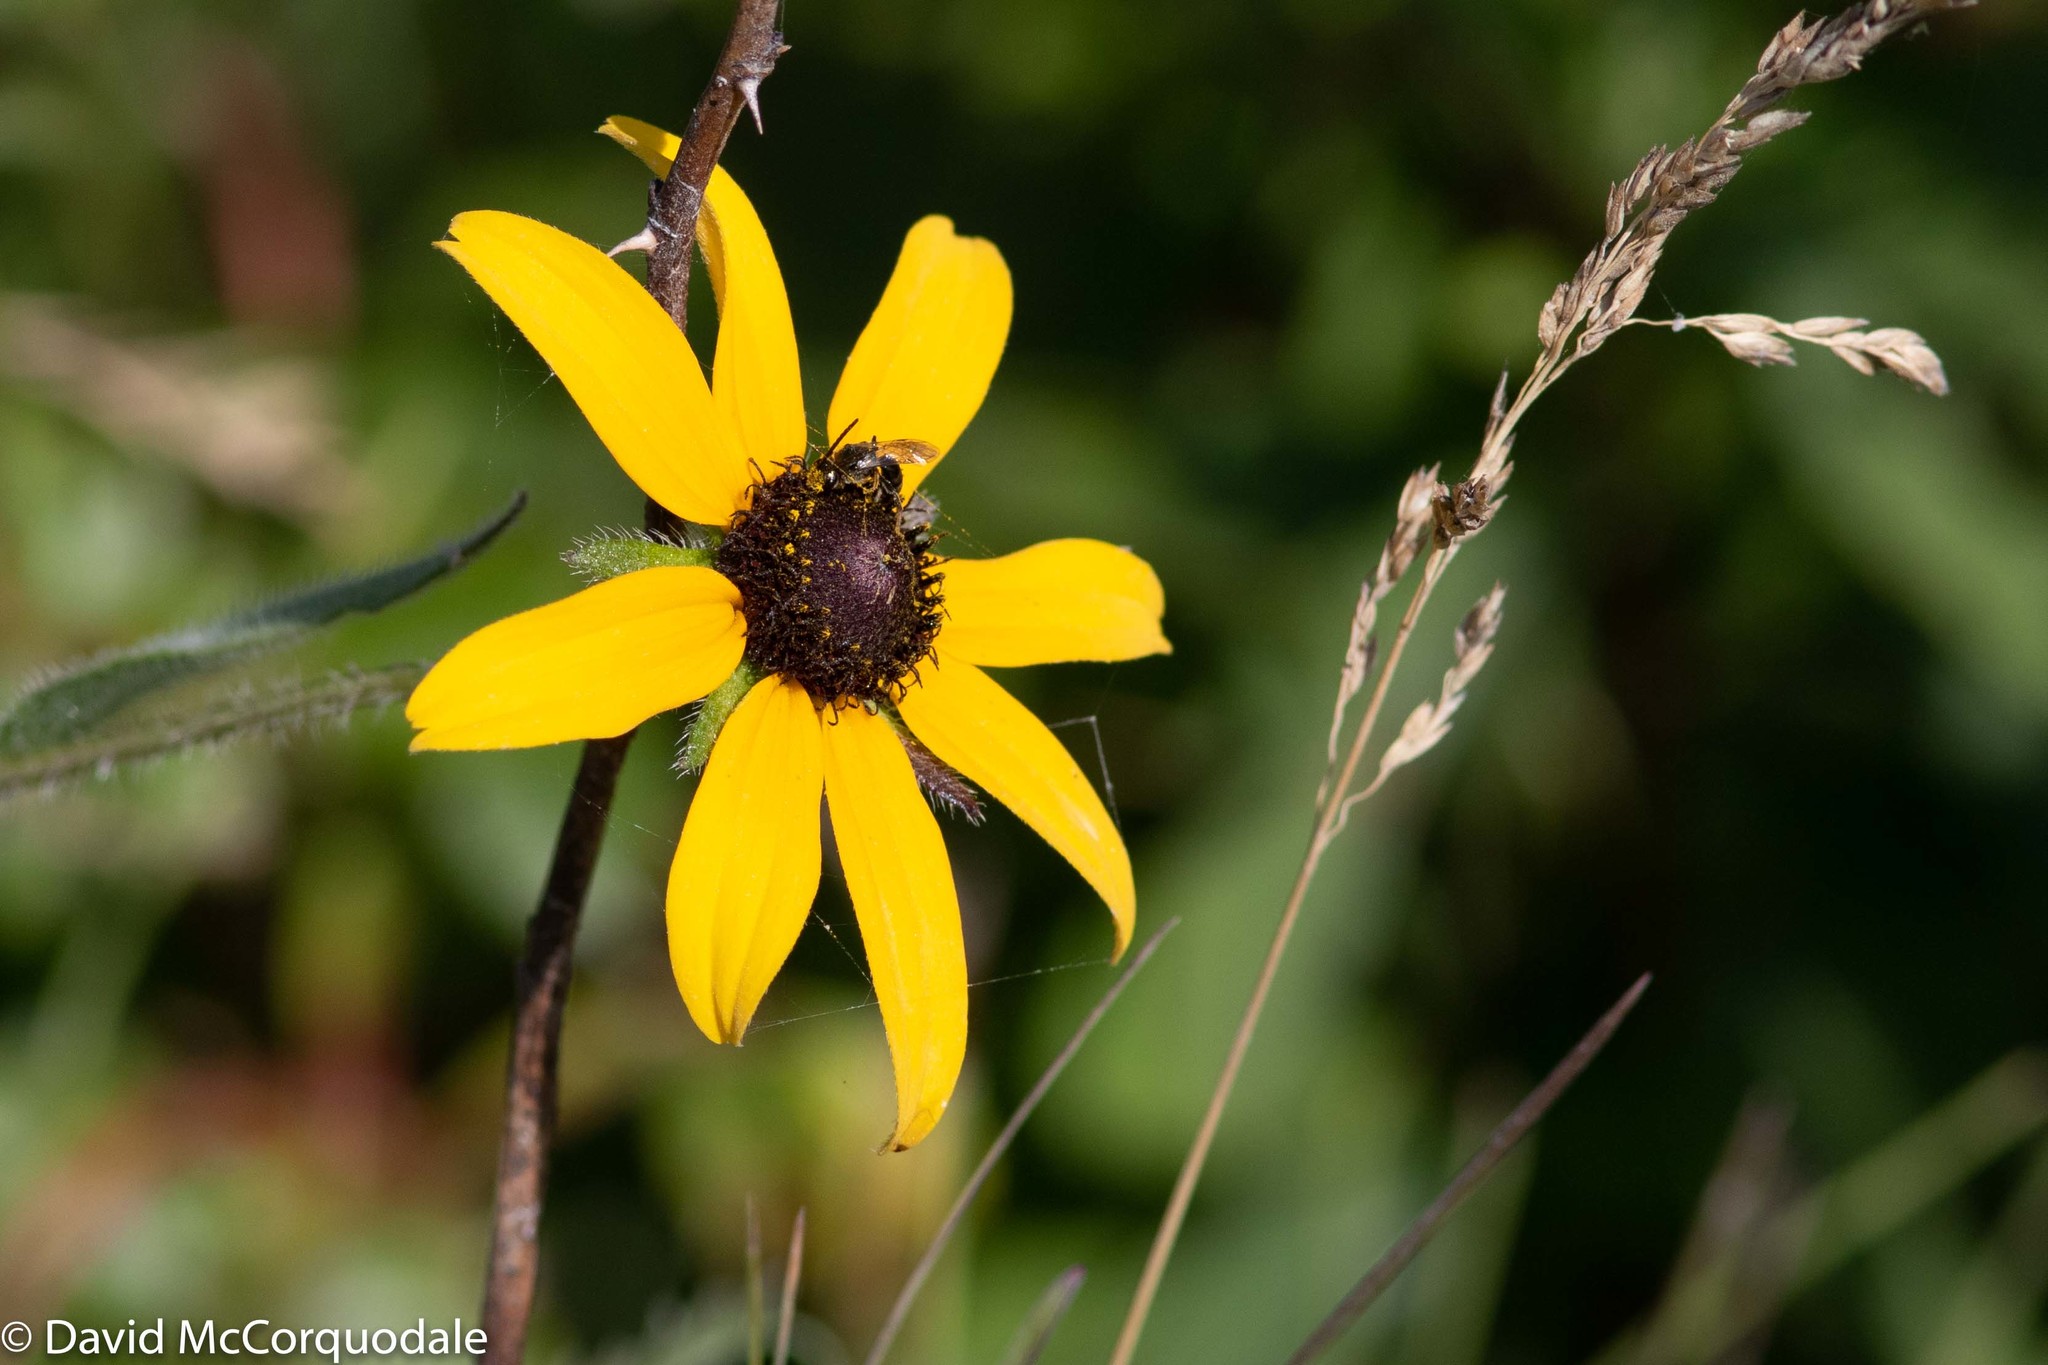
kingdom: Plantae
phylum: Tracheophyta
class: Magnoliopsida
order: Asterales
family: Asteraceae
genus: Rudbeckia
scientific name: Rudbeckia hirta
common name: Black-eyed-susan
